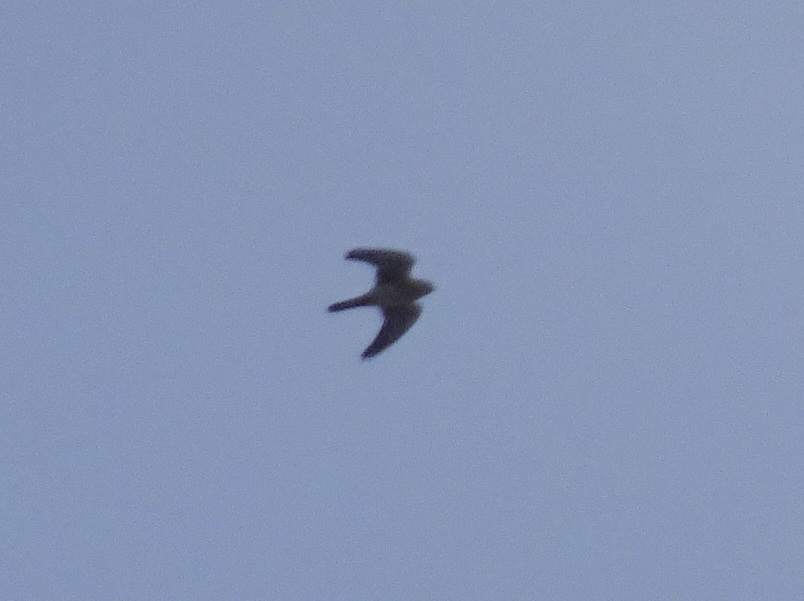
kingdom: Animalia
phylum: Chordata
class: Aves
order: Falconiformes
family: Falconidae
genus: Falco
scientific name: Falco sparverius
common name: American kestrel
